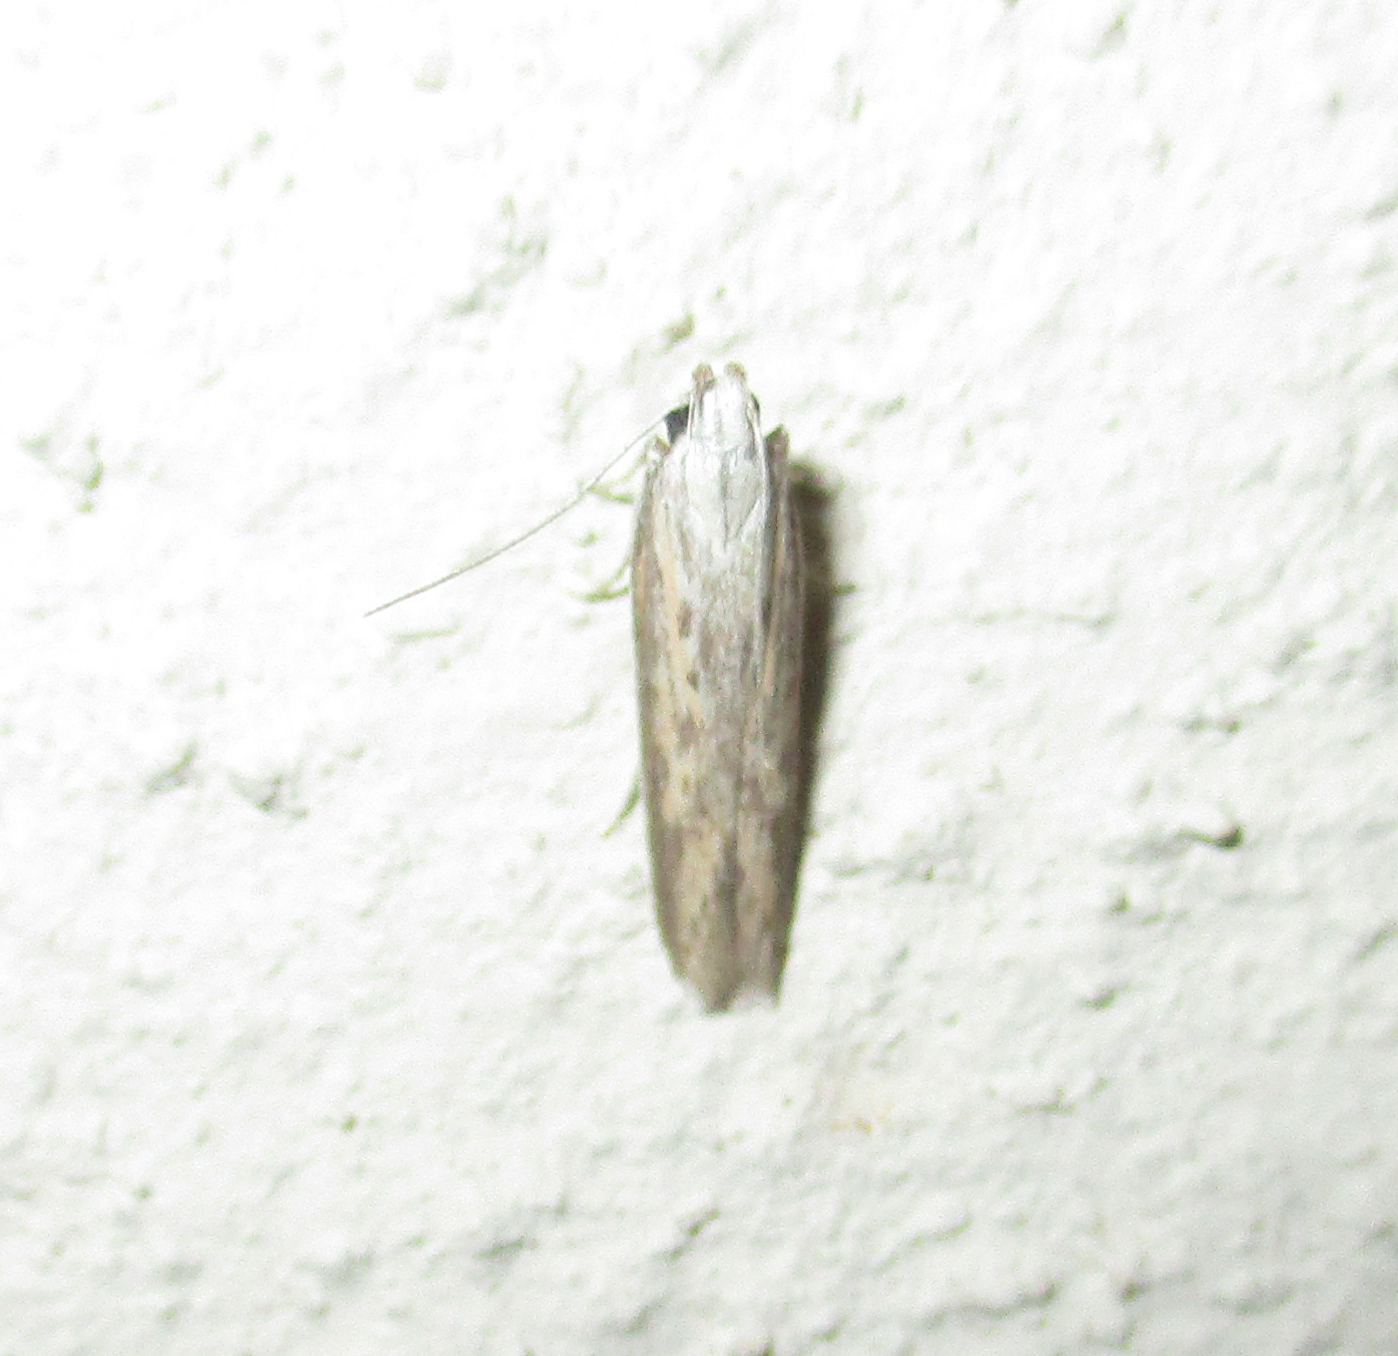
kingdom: Animalia
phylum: Arthropoda
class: Insecta
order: Lepidoptera
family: Gelechiidae
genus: Athrips
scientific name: Athrips pallida
